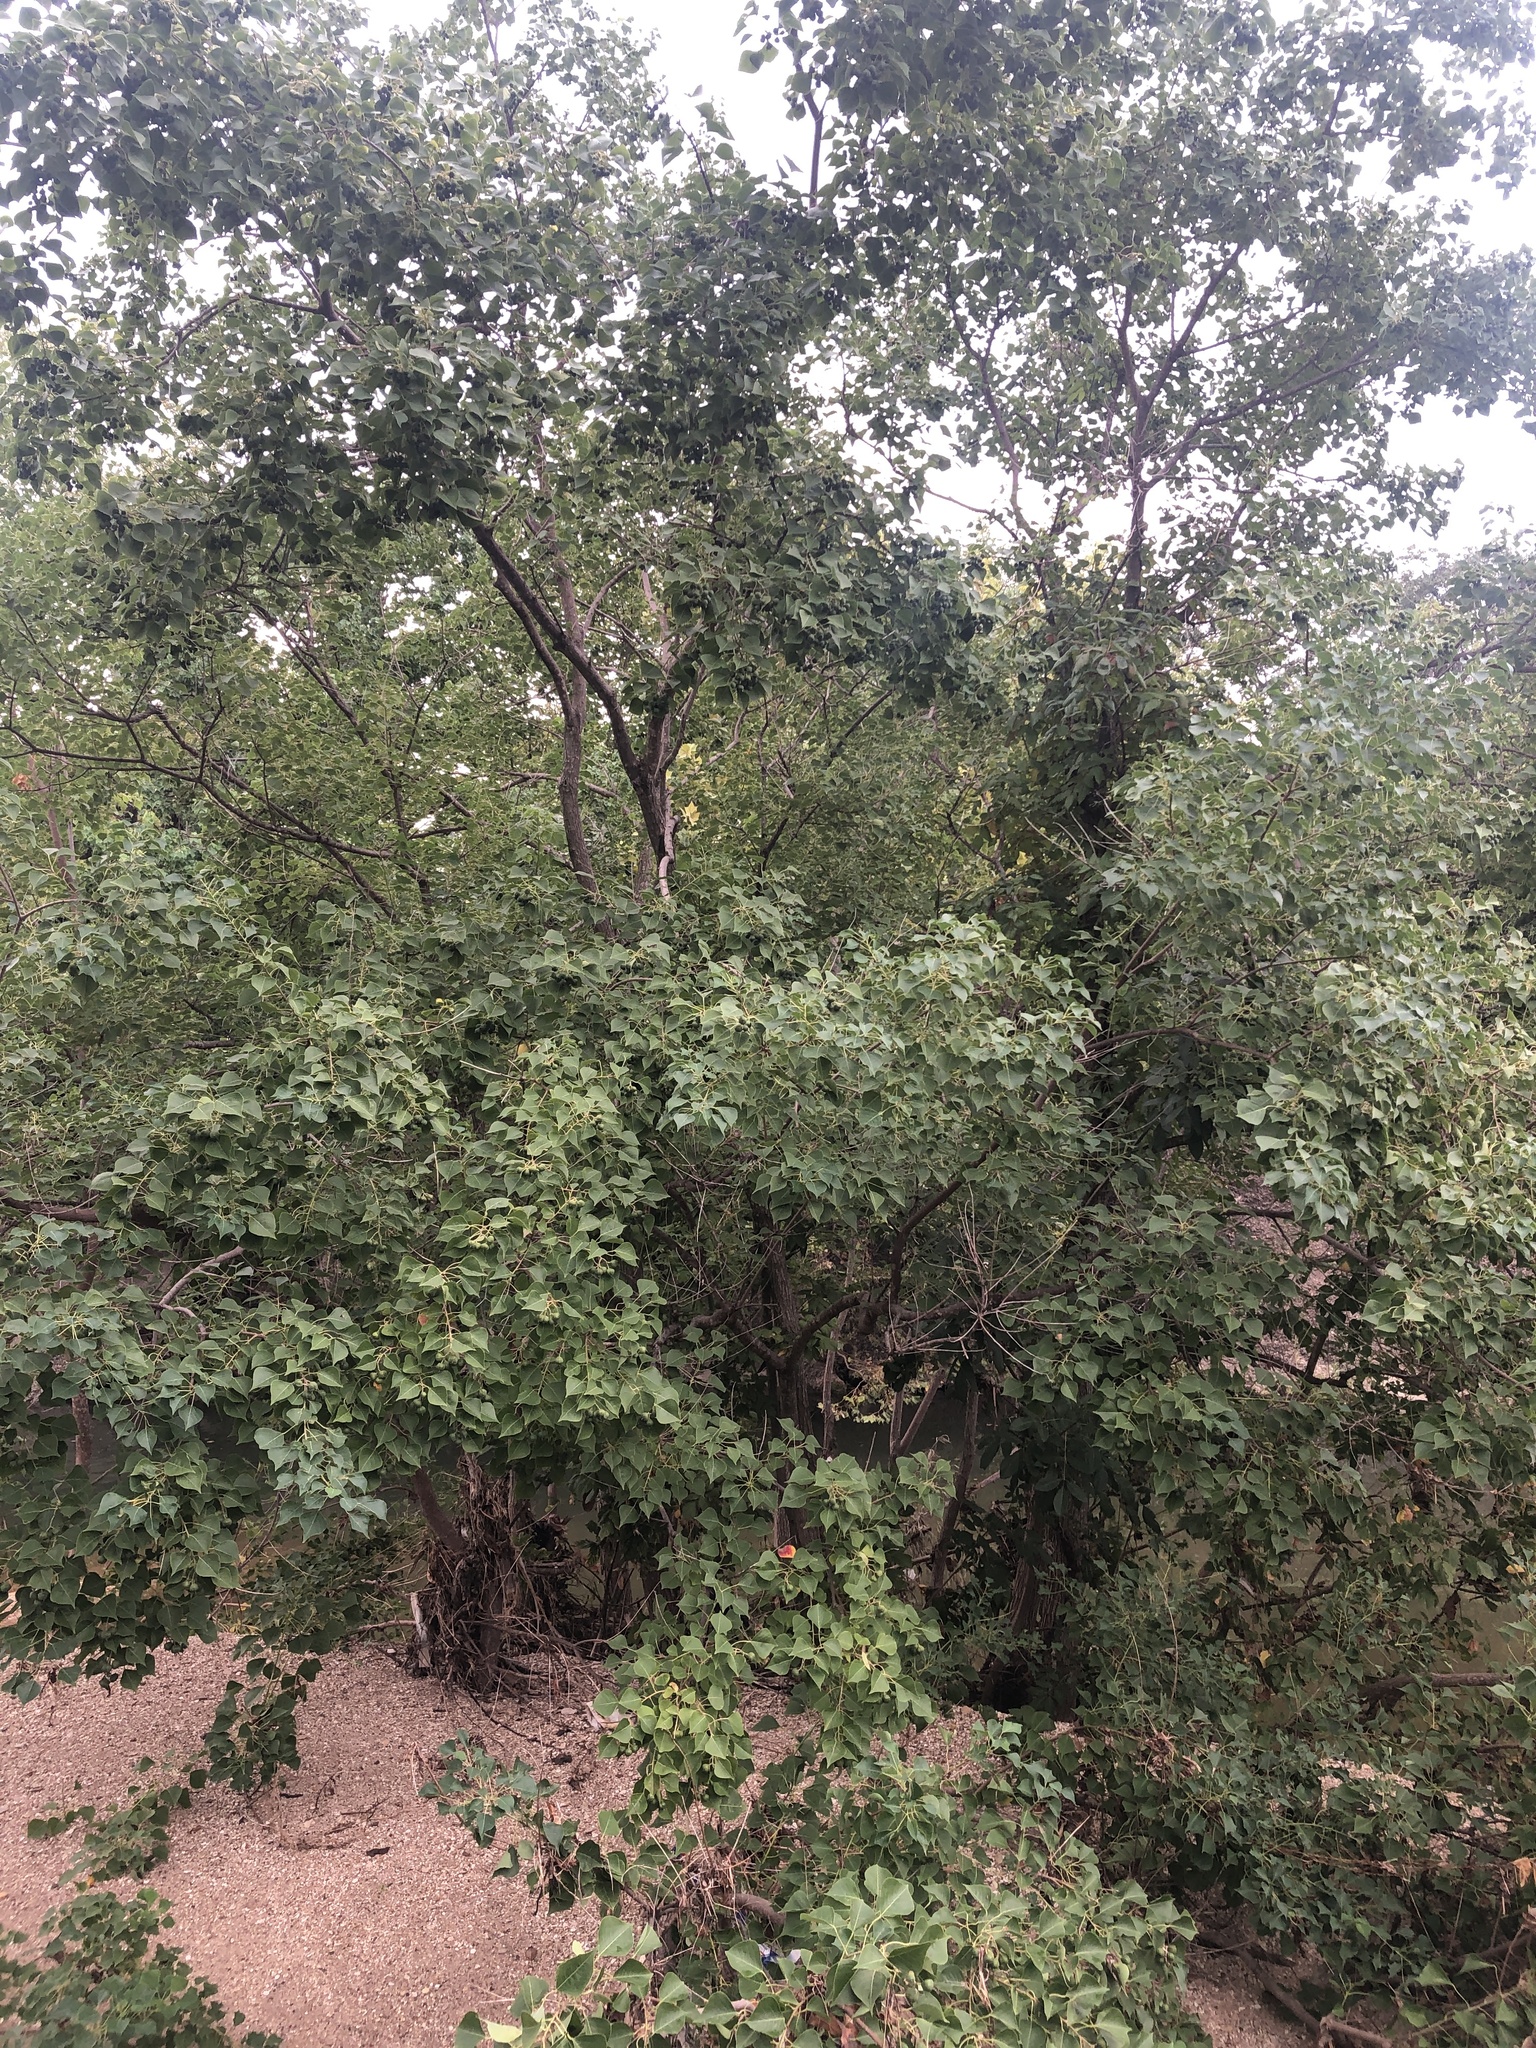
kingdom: Plantae
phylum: Tracheophyta
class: Magnoliopsida
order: Malpighiales
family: Euphorbiaceae
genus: Triadica
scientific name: Triadica sebifera
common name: Chinese tallow
